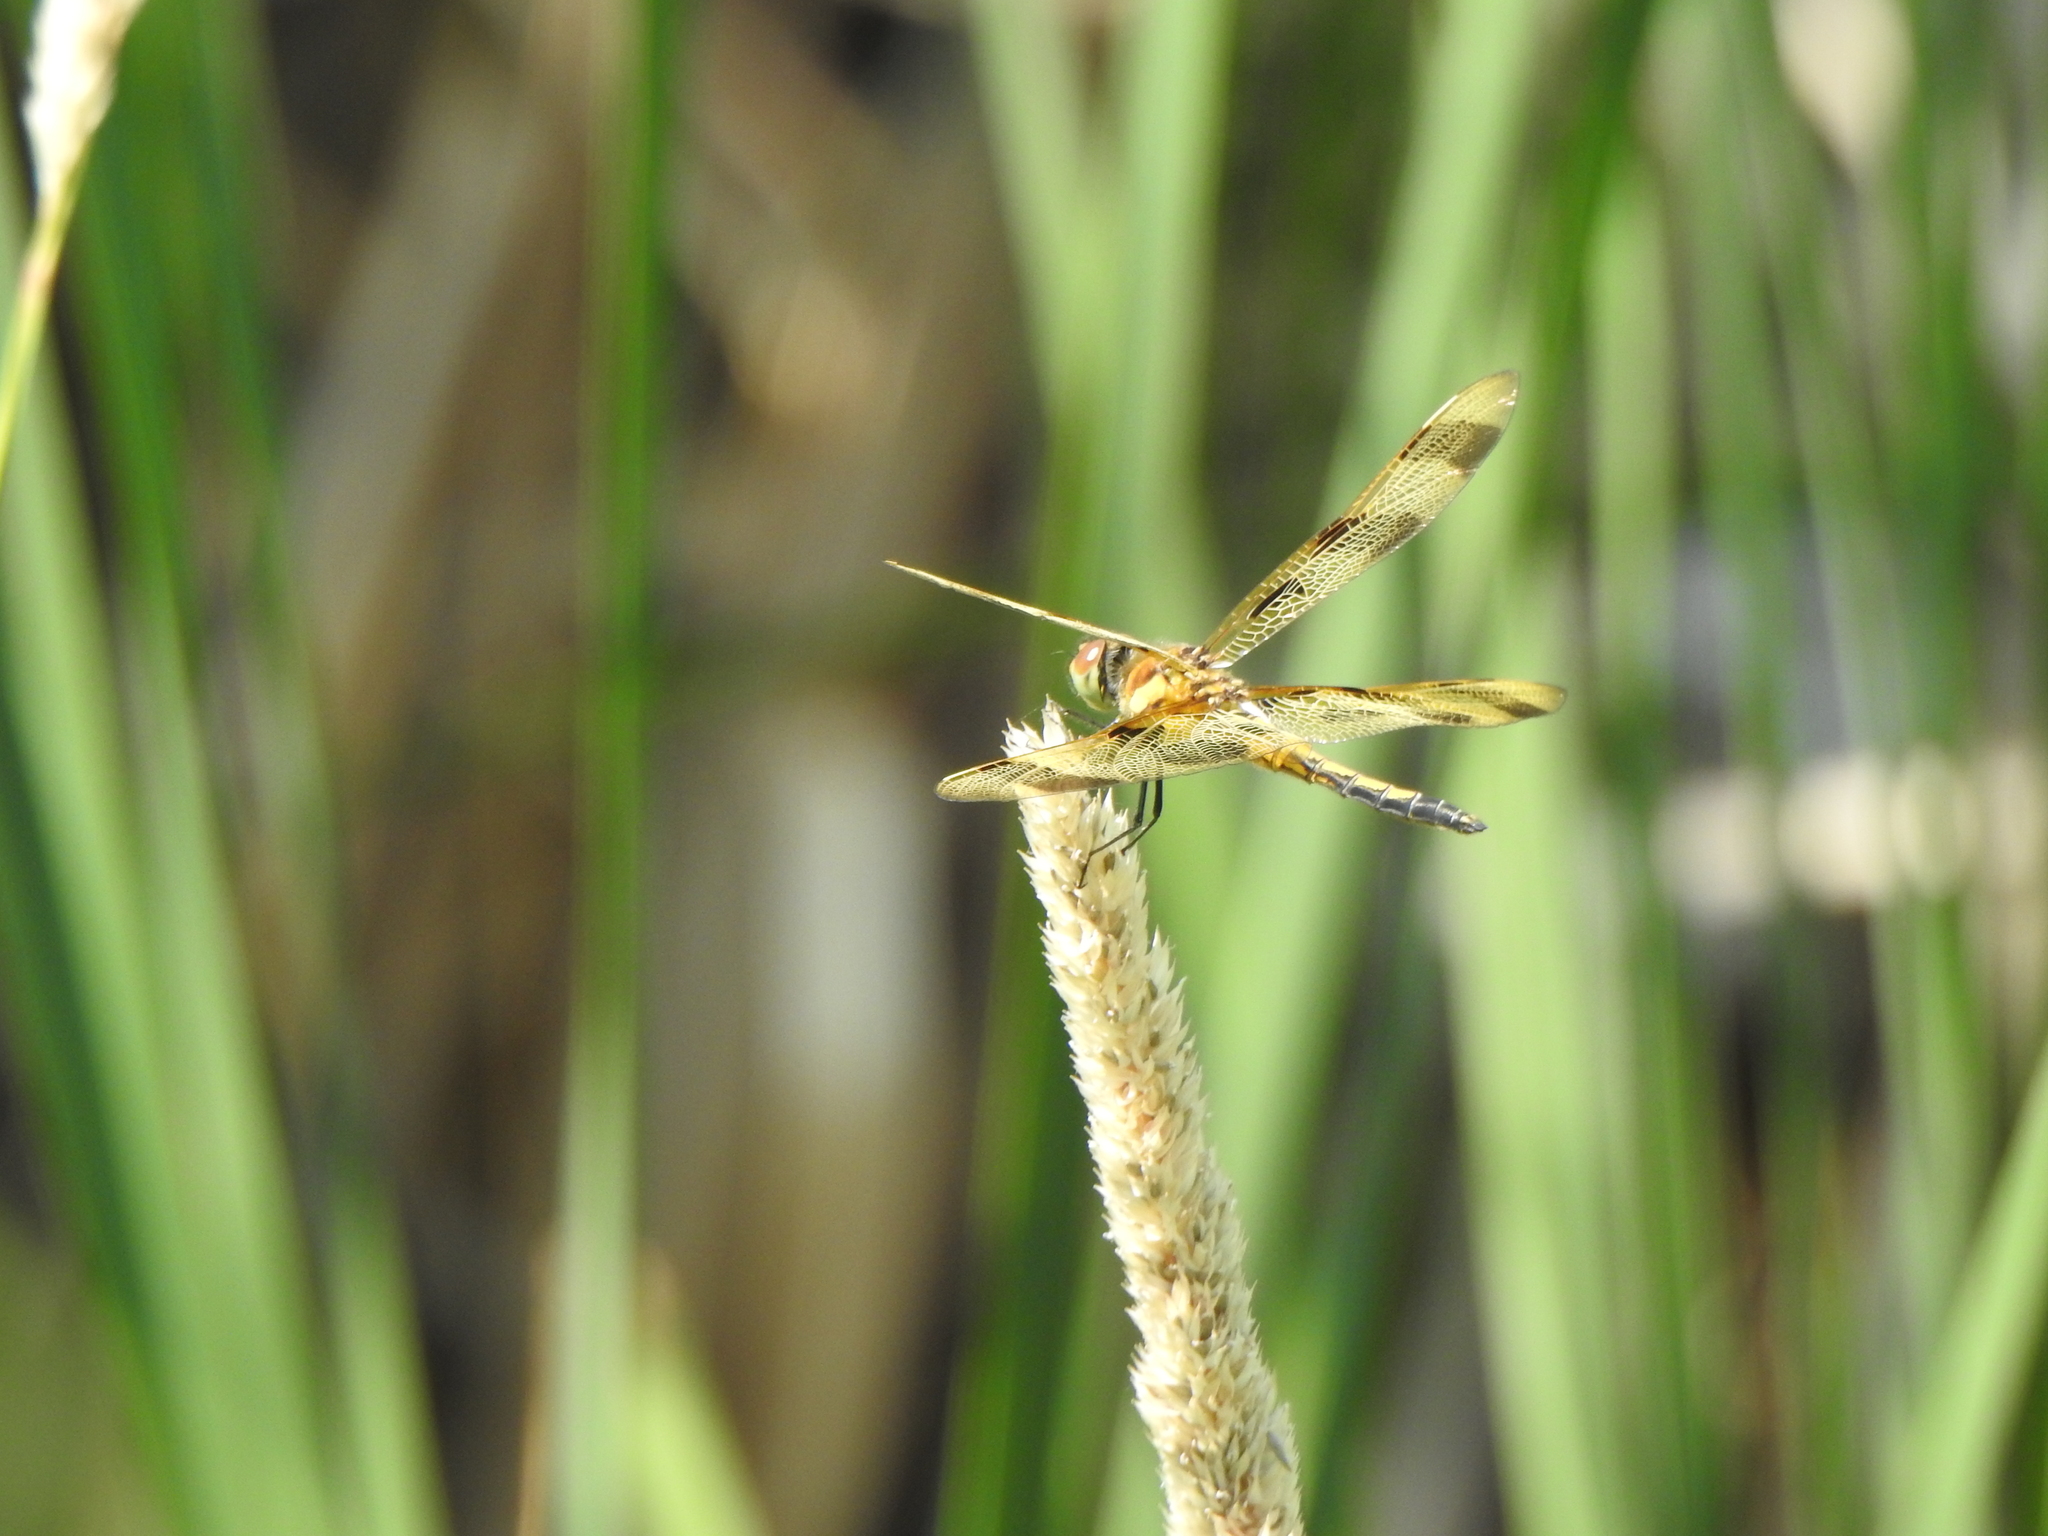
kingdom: Animalia
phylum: Arthropoda
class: Insecta
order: Odonata
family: Libellulidae
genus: Celithemis
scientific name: Celithemis eponina
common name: Halloween pennant
